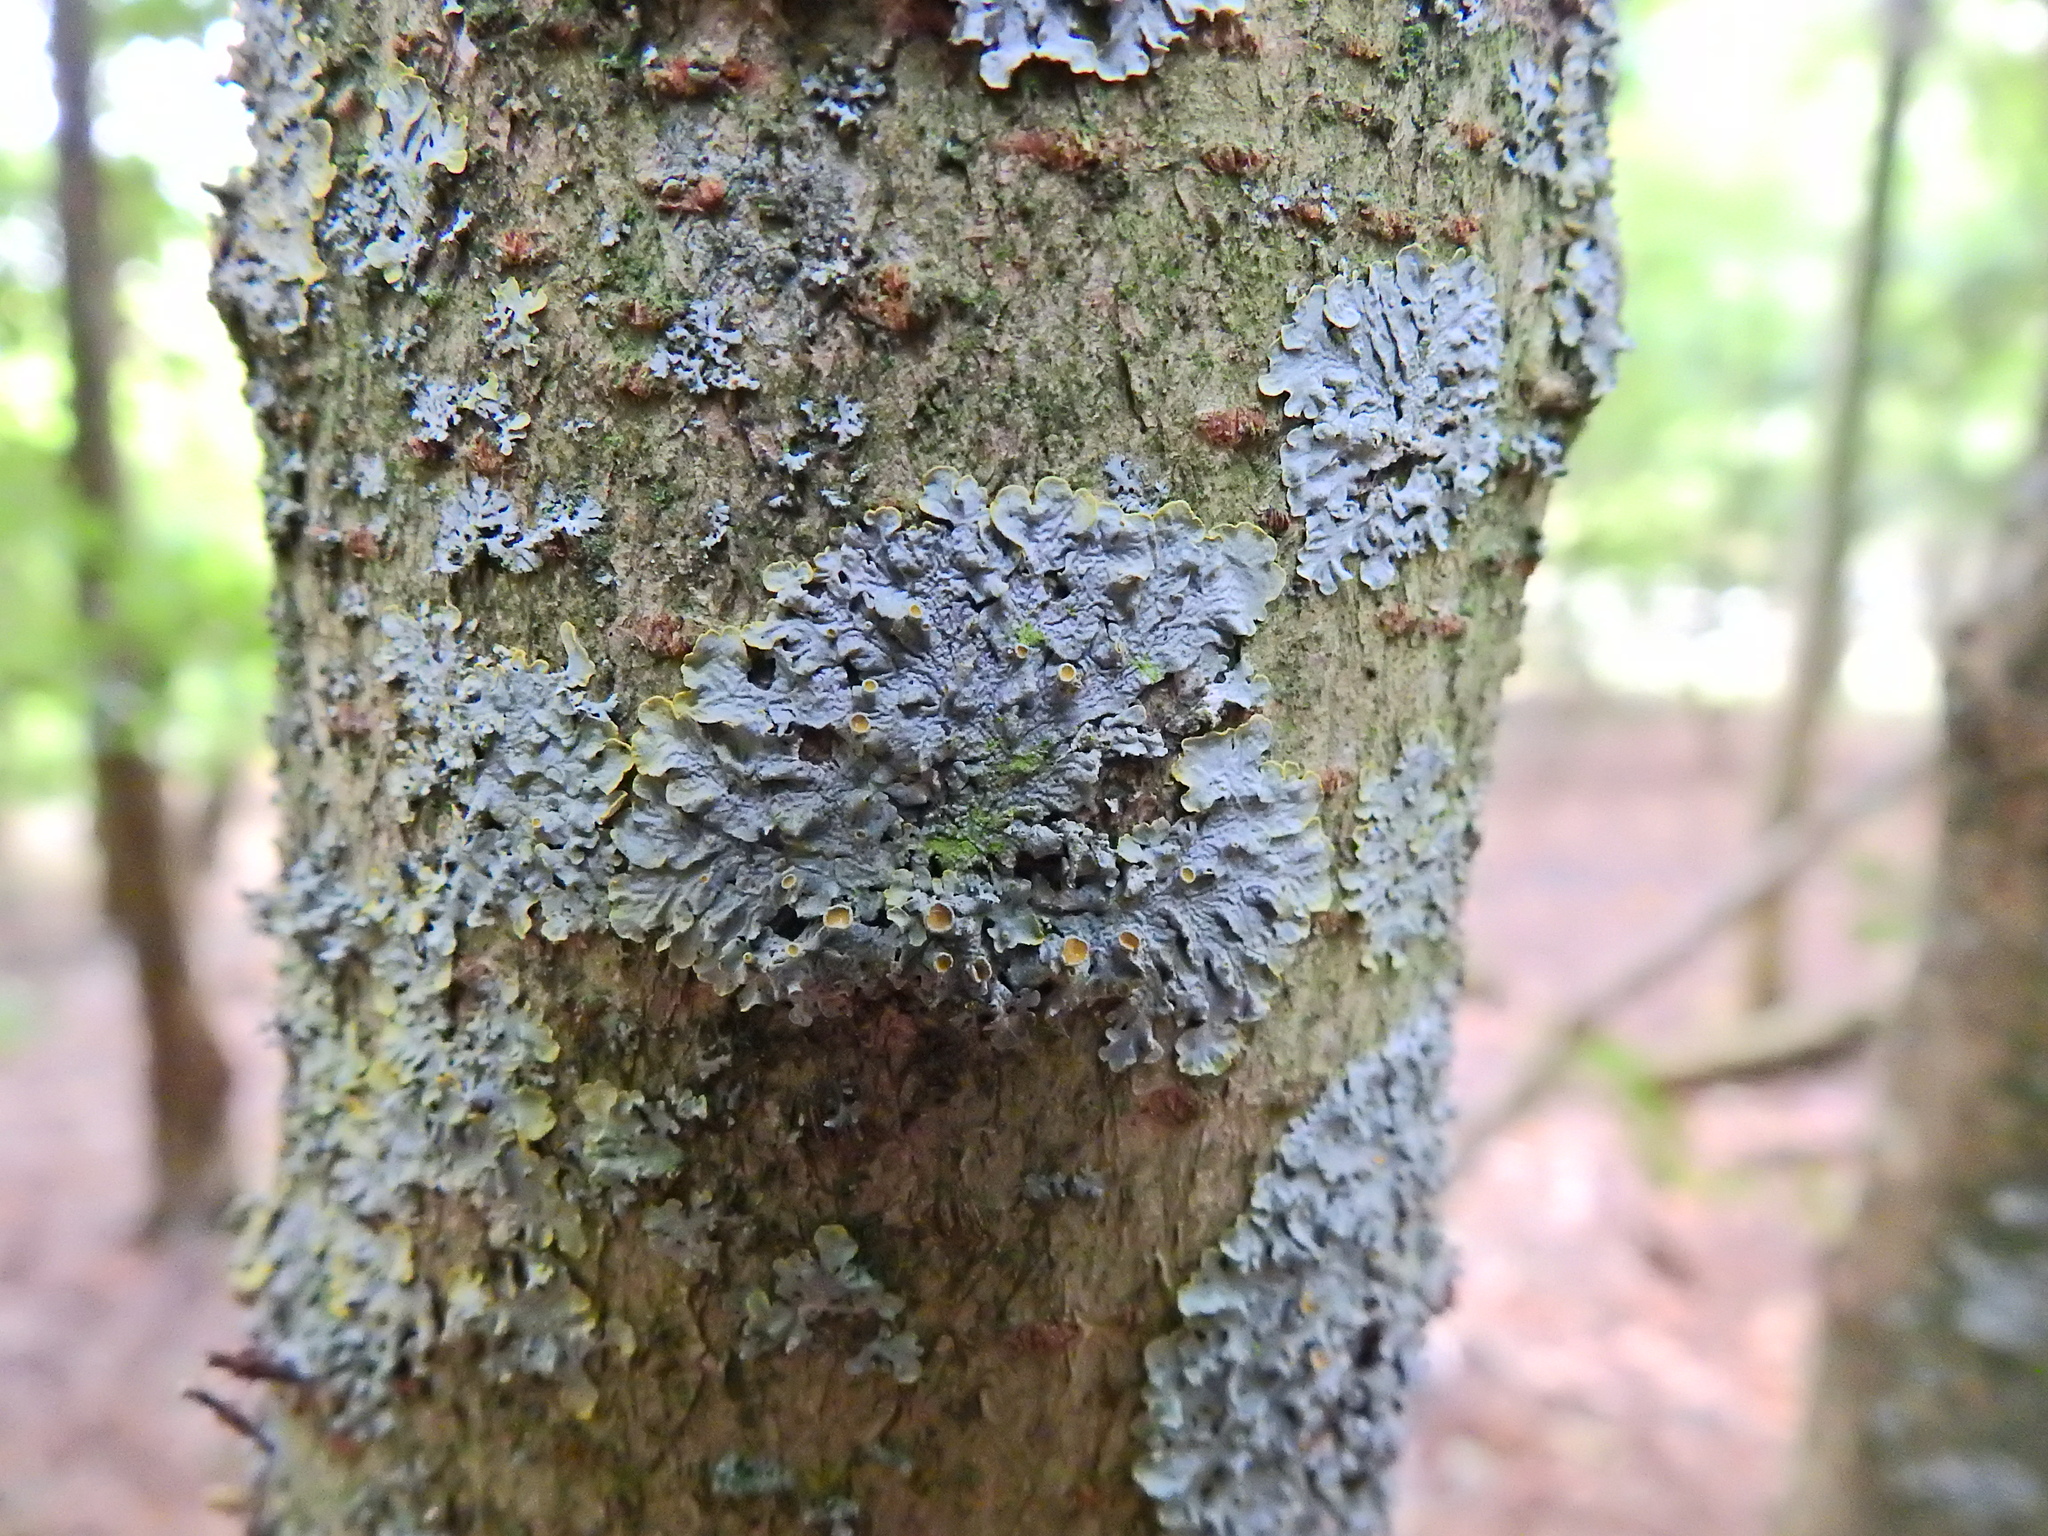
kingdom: Fungi
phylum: Ascomycota
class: Lecanoromycetes
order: Teloschistales
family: Teloschistaceae
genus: Xanthoria
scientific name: Xanthoria parietina
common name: Common orange lichen
